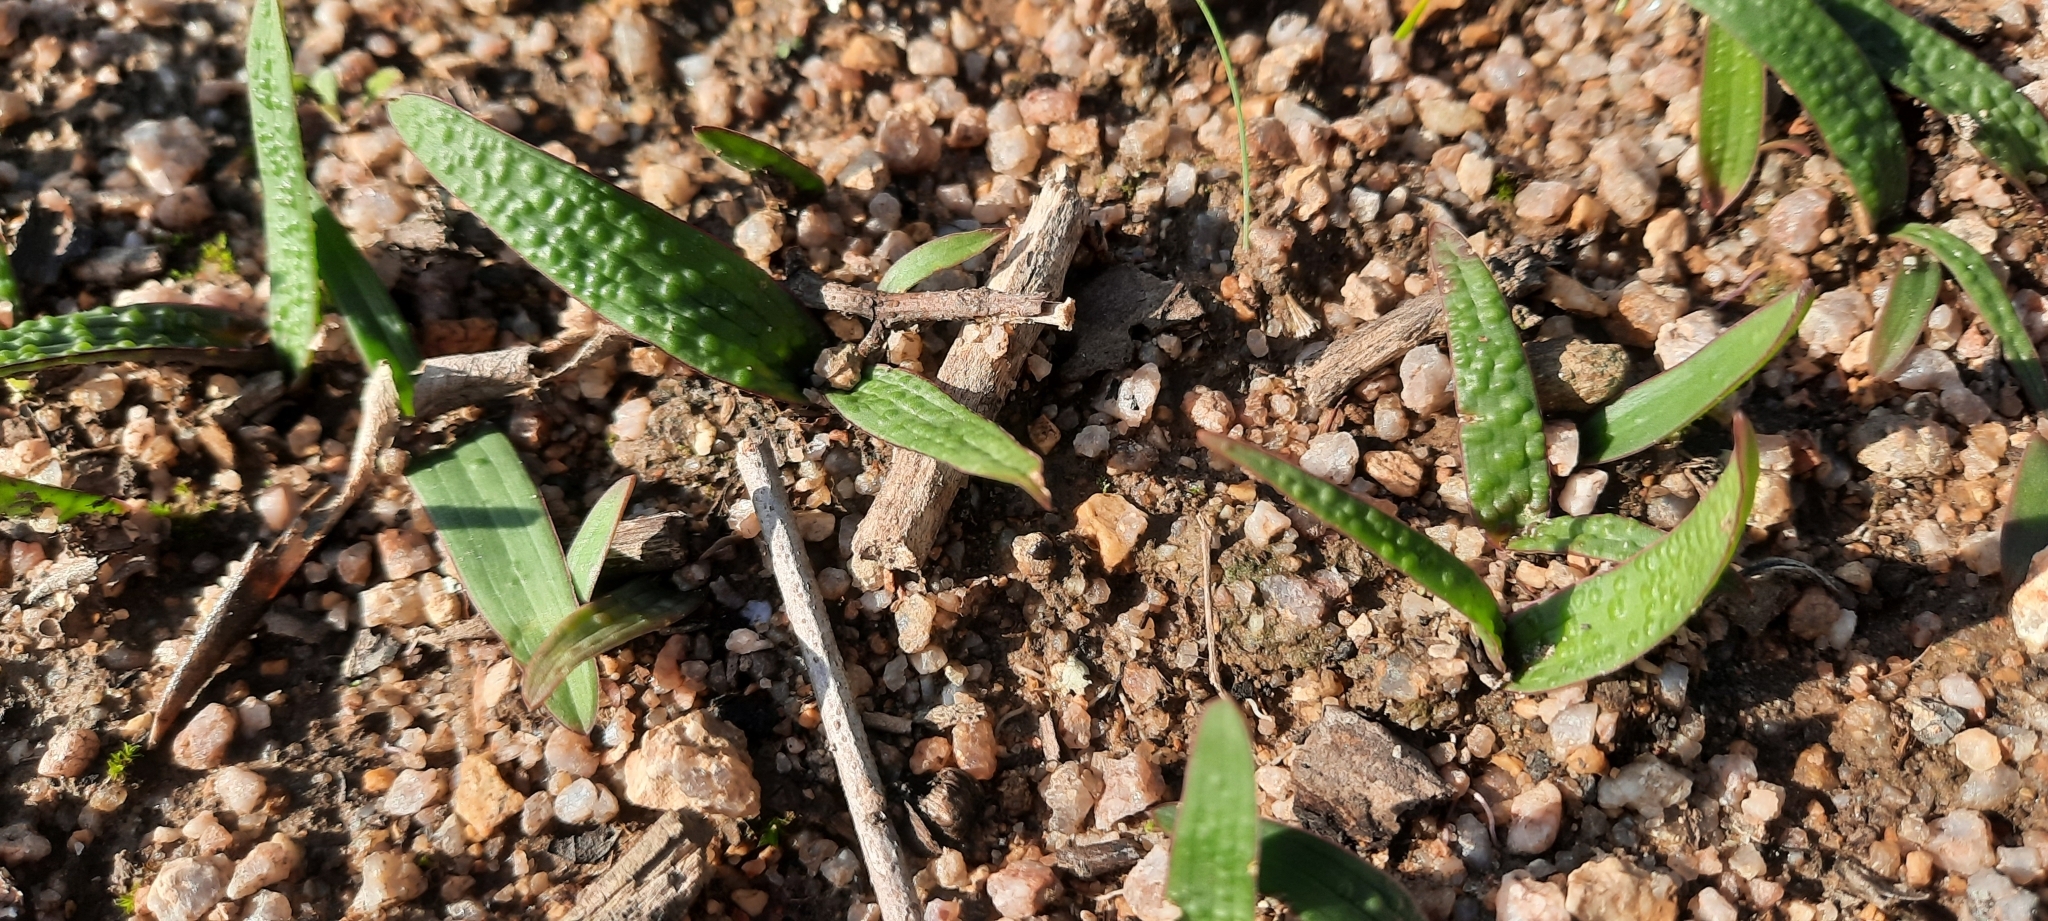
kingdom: Plantae
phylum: Tracheophyta
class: Liliopsida
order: Asparagales
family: Asparagaceae
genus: Lachenalia
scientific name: Lachenalia pallida
